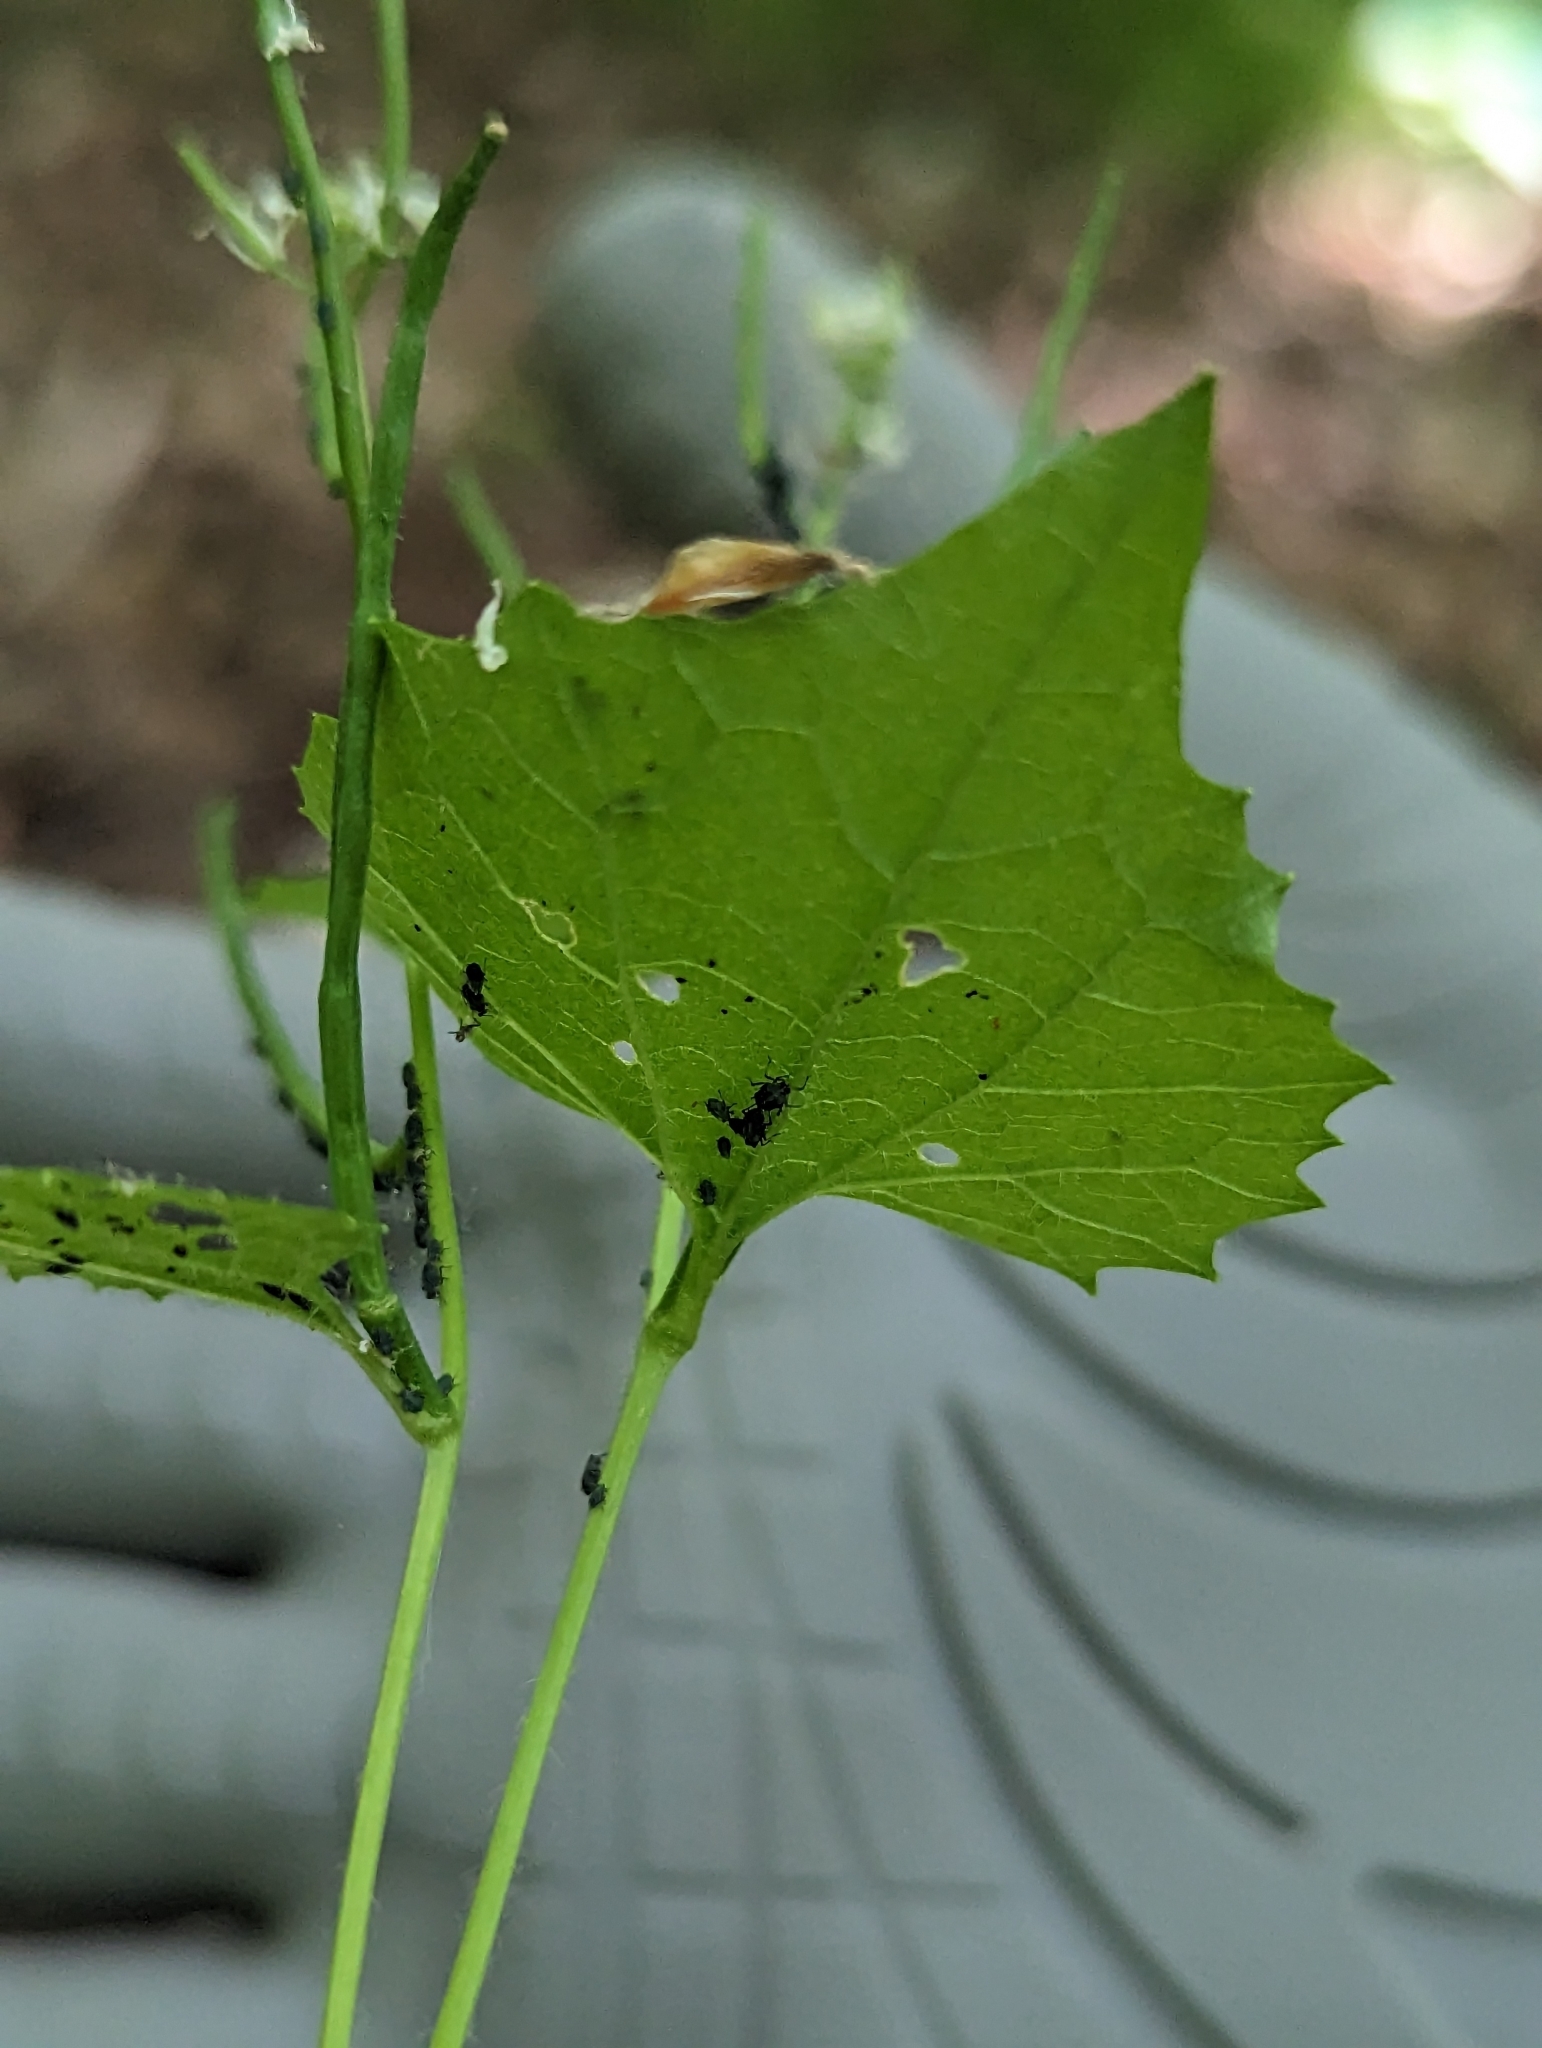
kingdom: Animalia
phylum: Arthropoda
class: Insecta
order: Hemiptera
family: Aphididae
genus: Lipaphis
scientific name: Lipaphis alliariae
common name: Granade aphid
